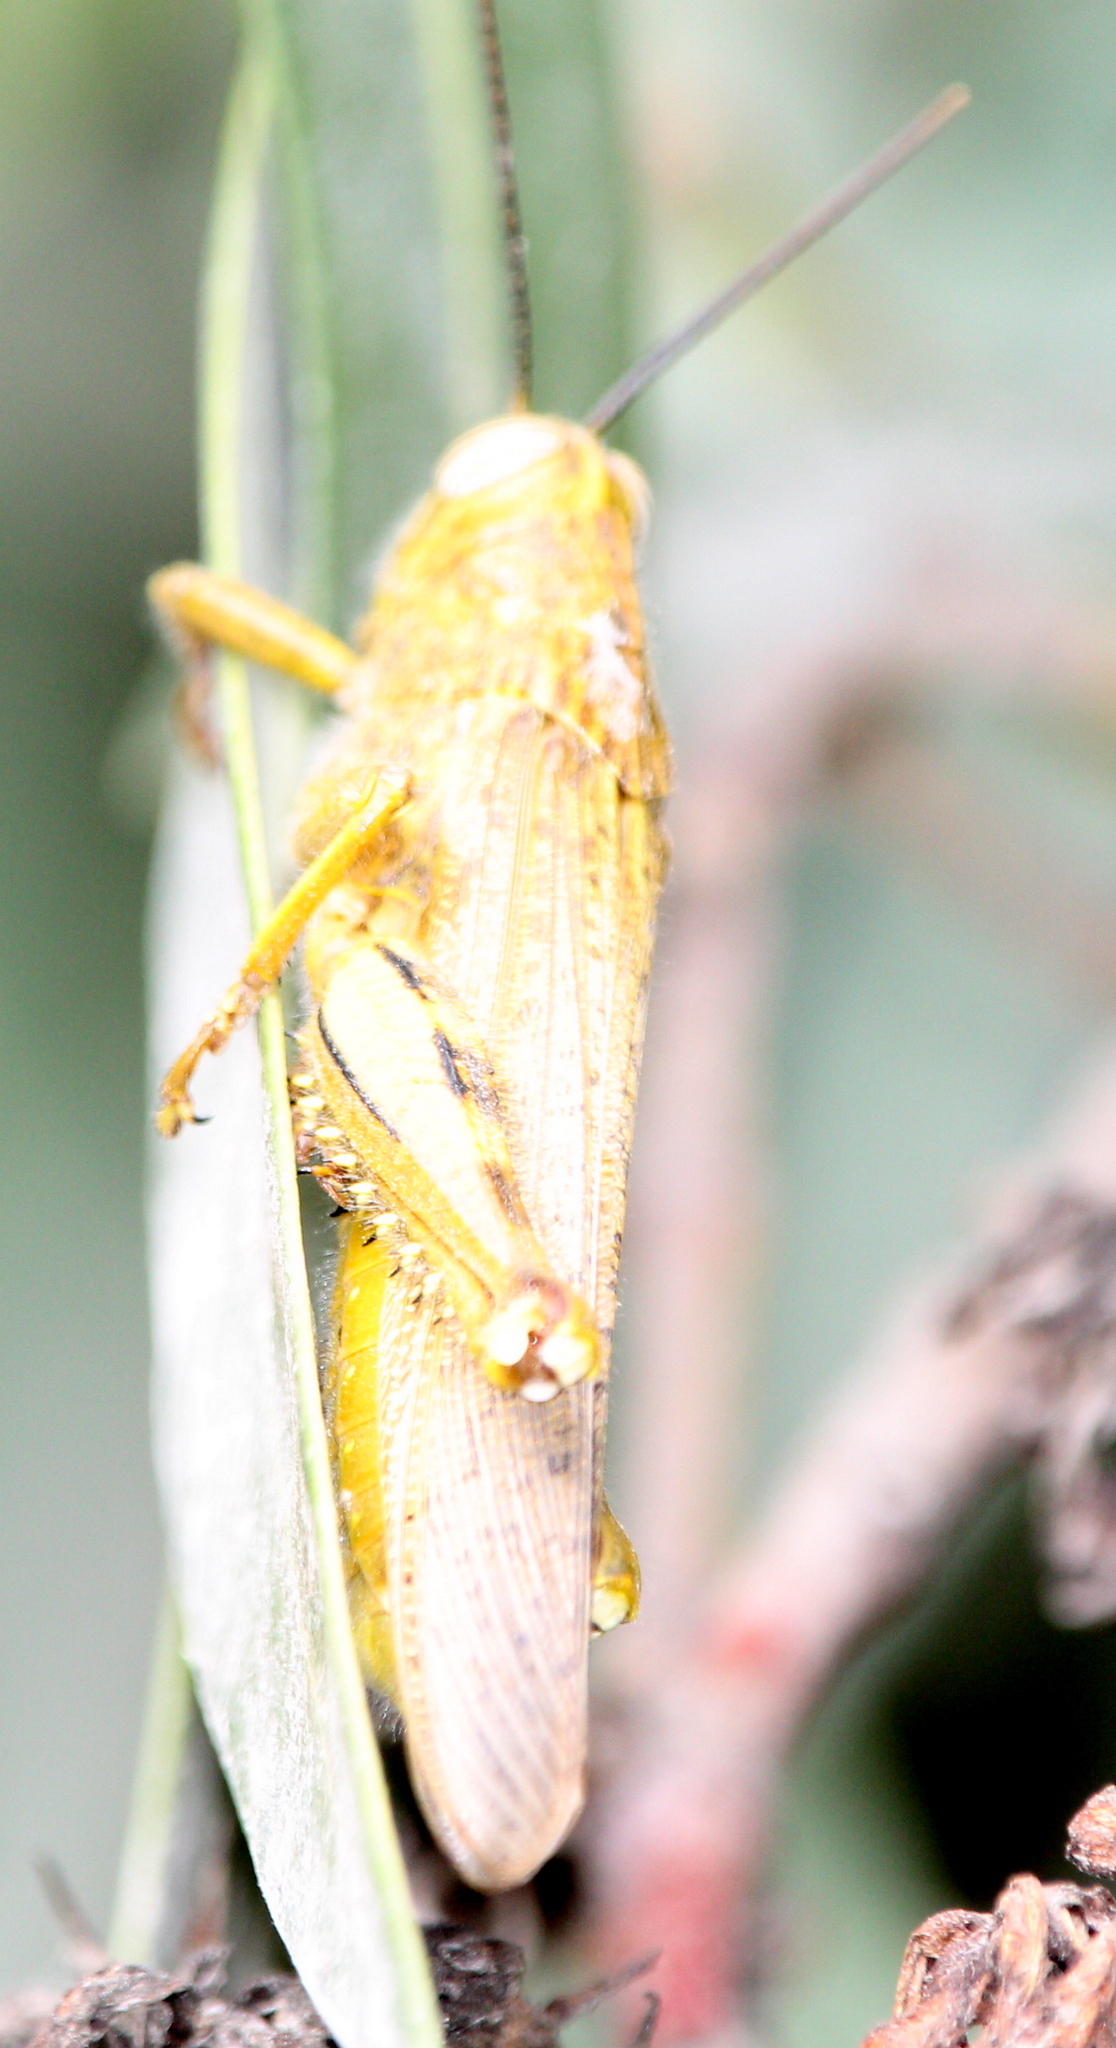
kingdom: Animalia
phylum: Arthropoda
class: Insecta
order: Orthoptera
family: Acrididae
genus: Anacridium
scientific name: Anacridium aegyptium
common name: Egyptian grasshopper
